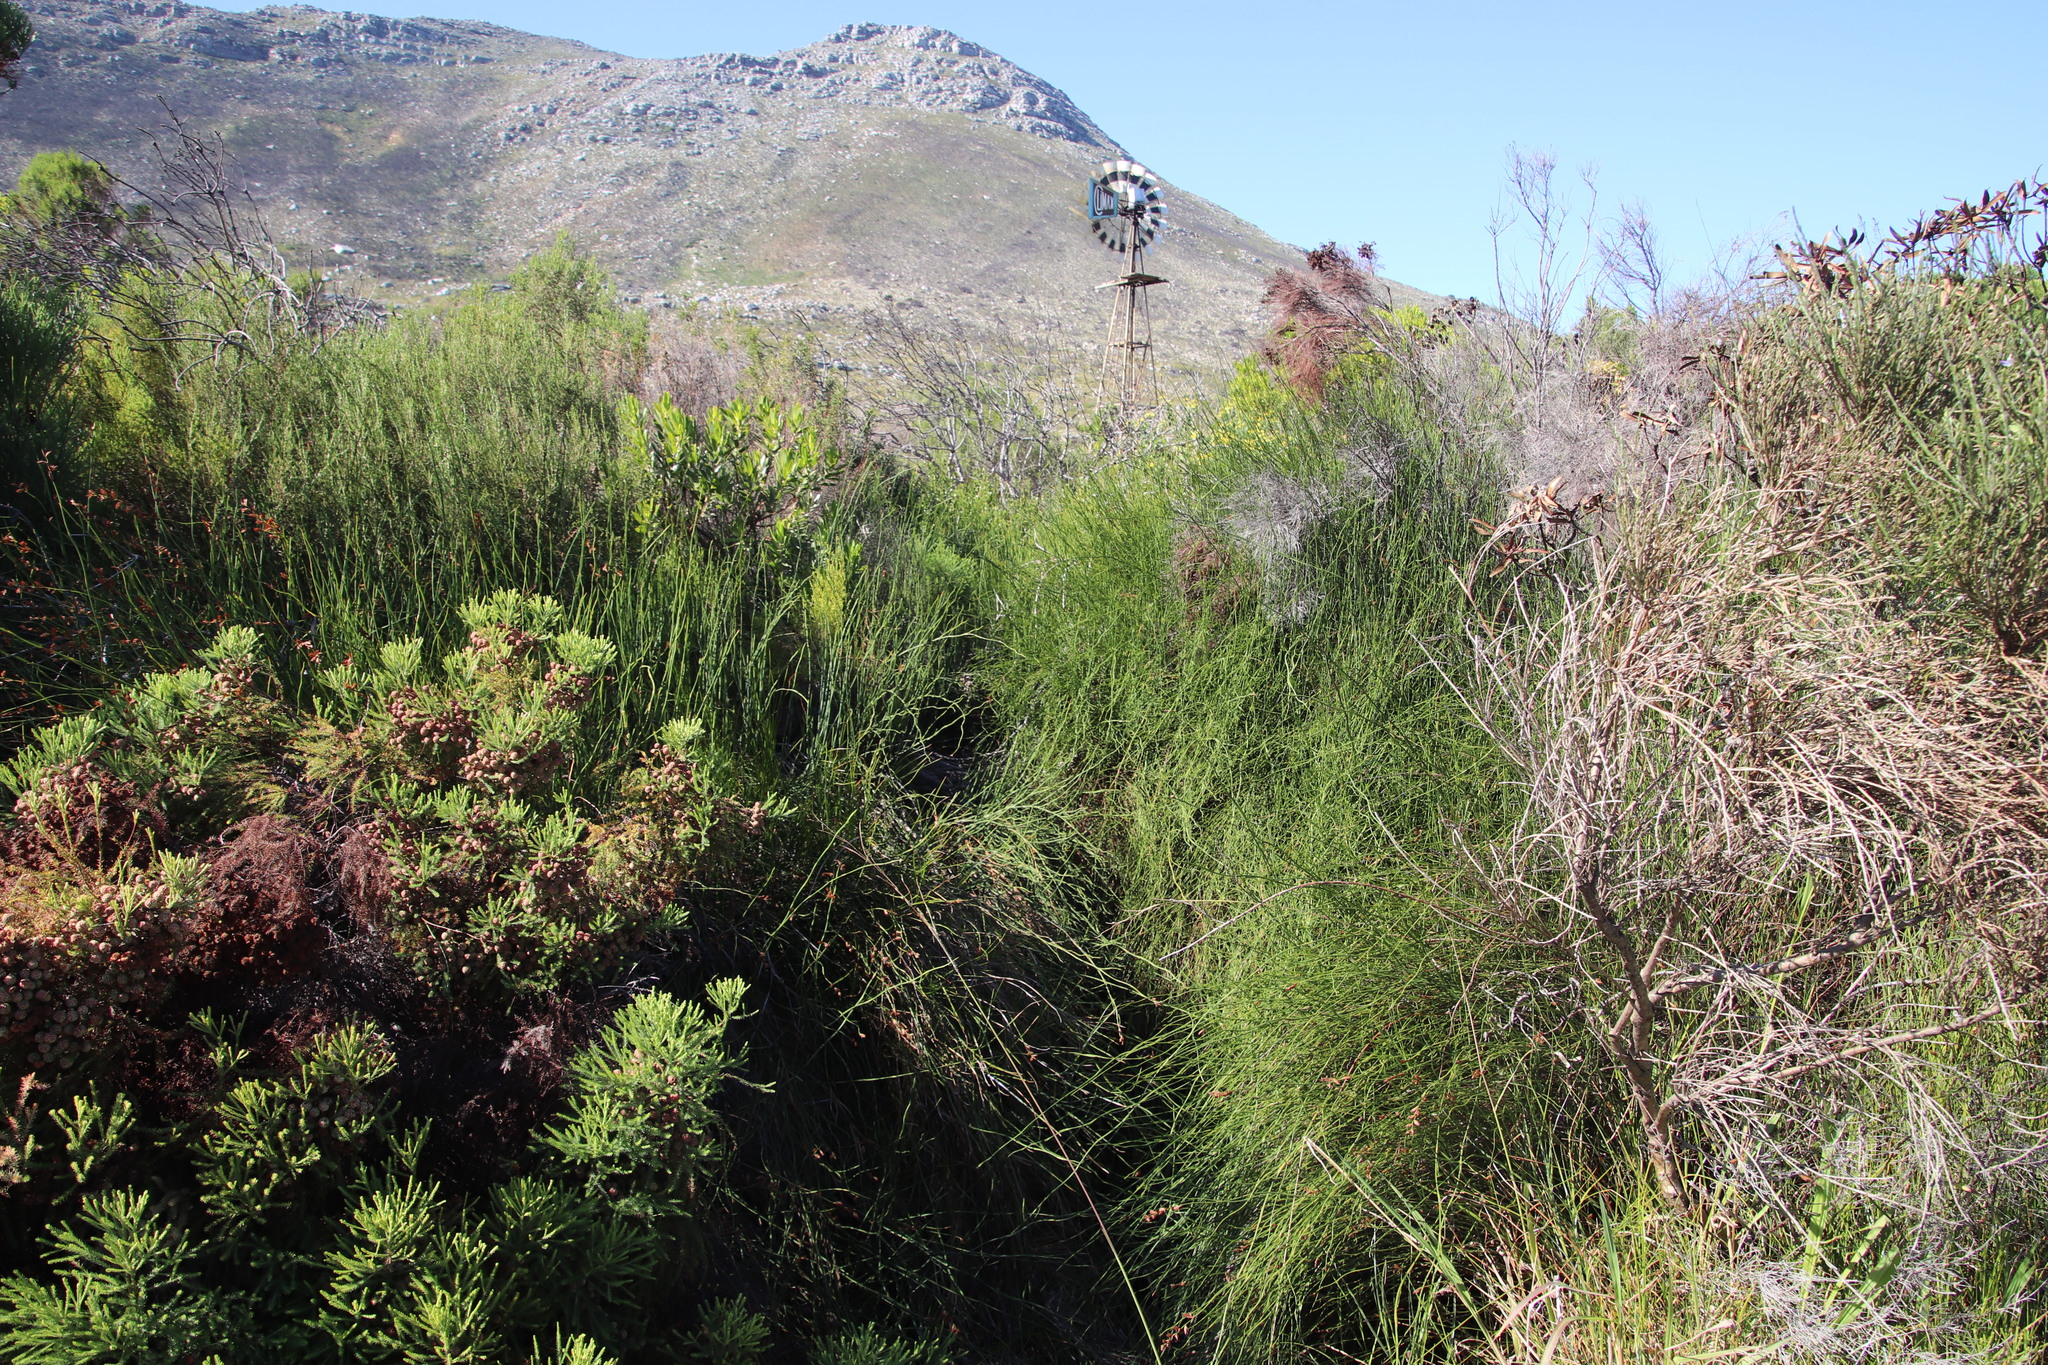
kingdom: Plantae
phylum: Tracheophyta
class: Liliopsida
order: Poales
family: Restionaceae
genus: Platycaulos
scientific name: Platycaulos compressus
